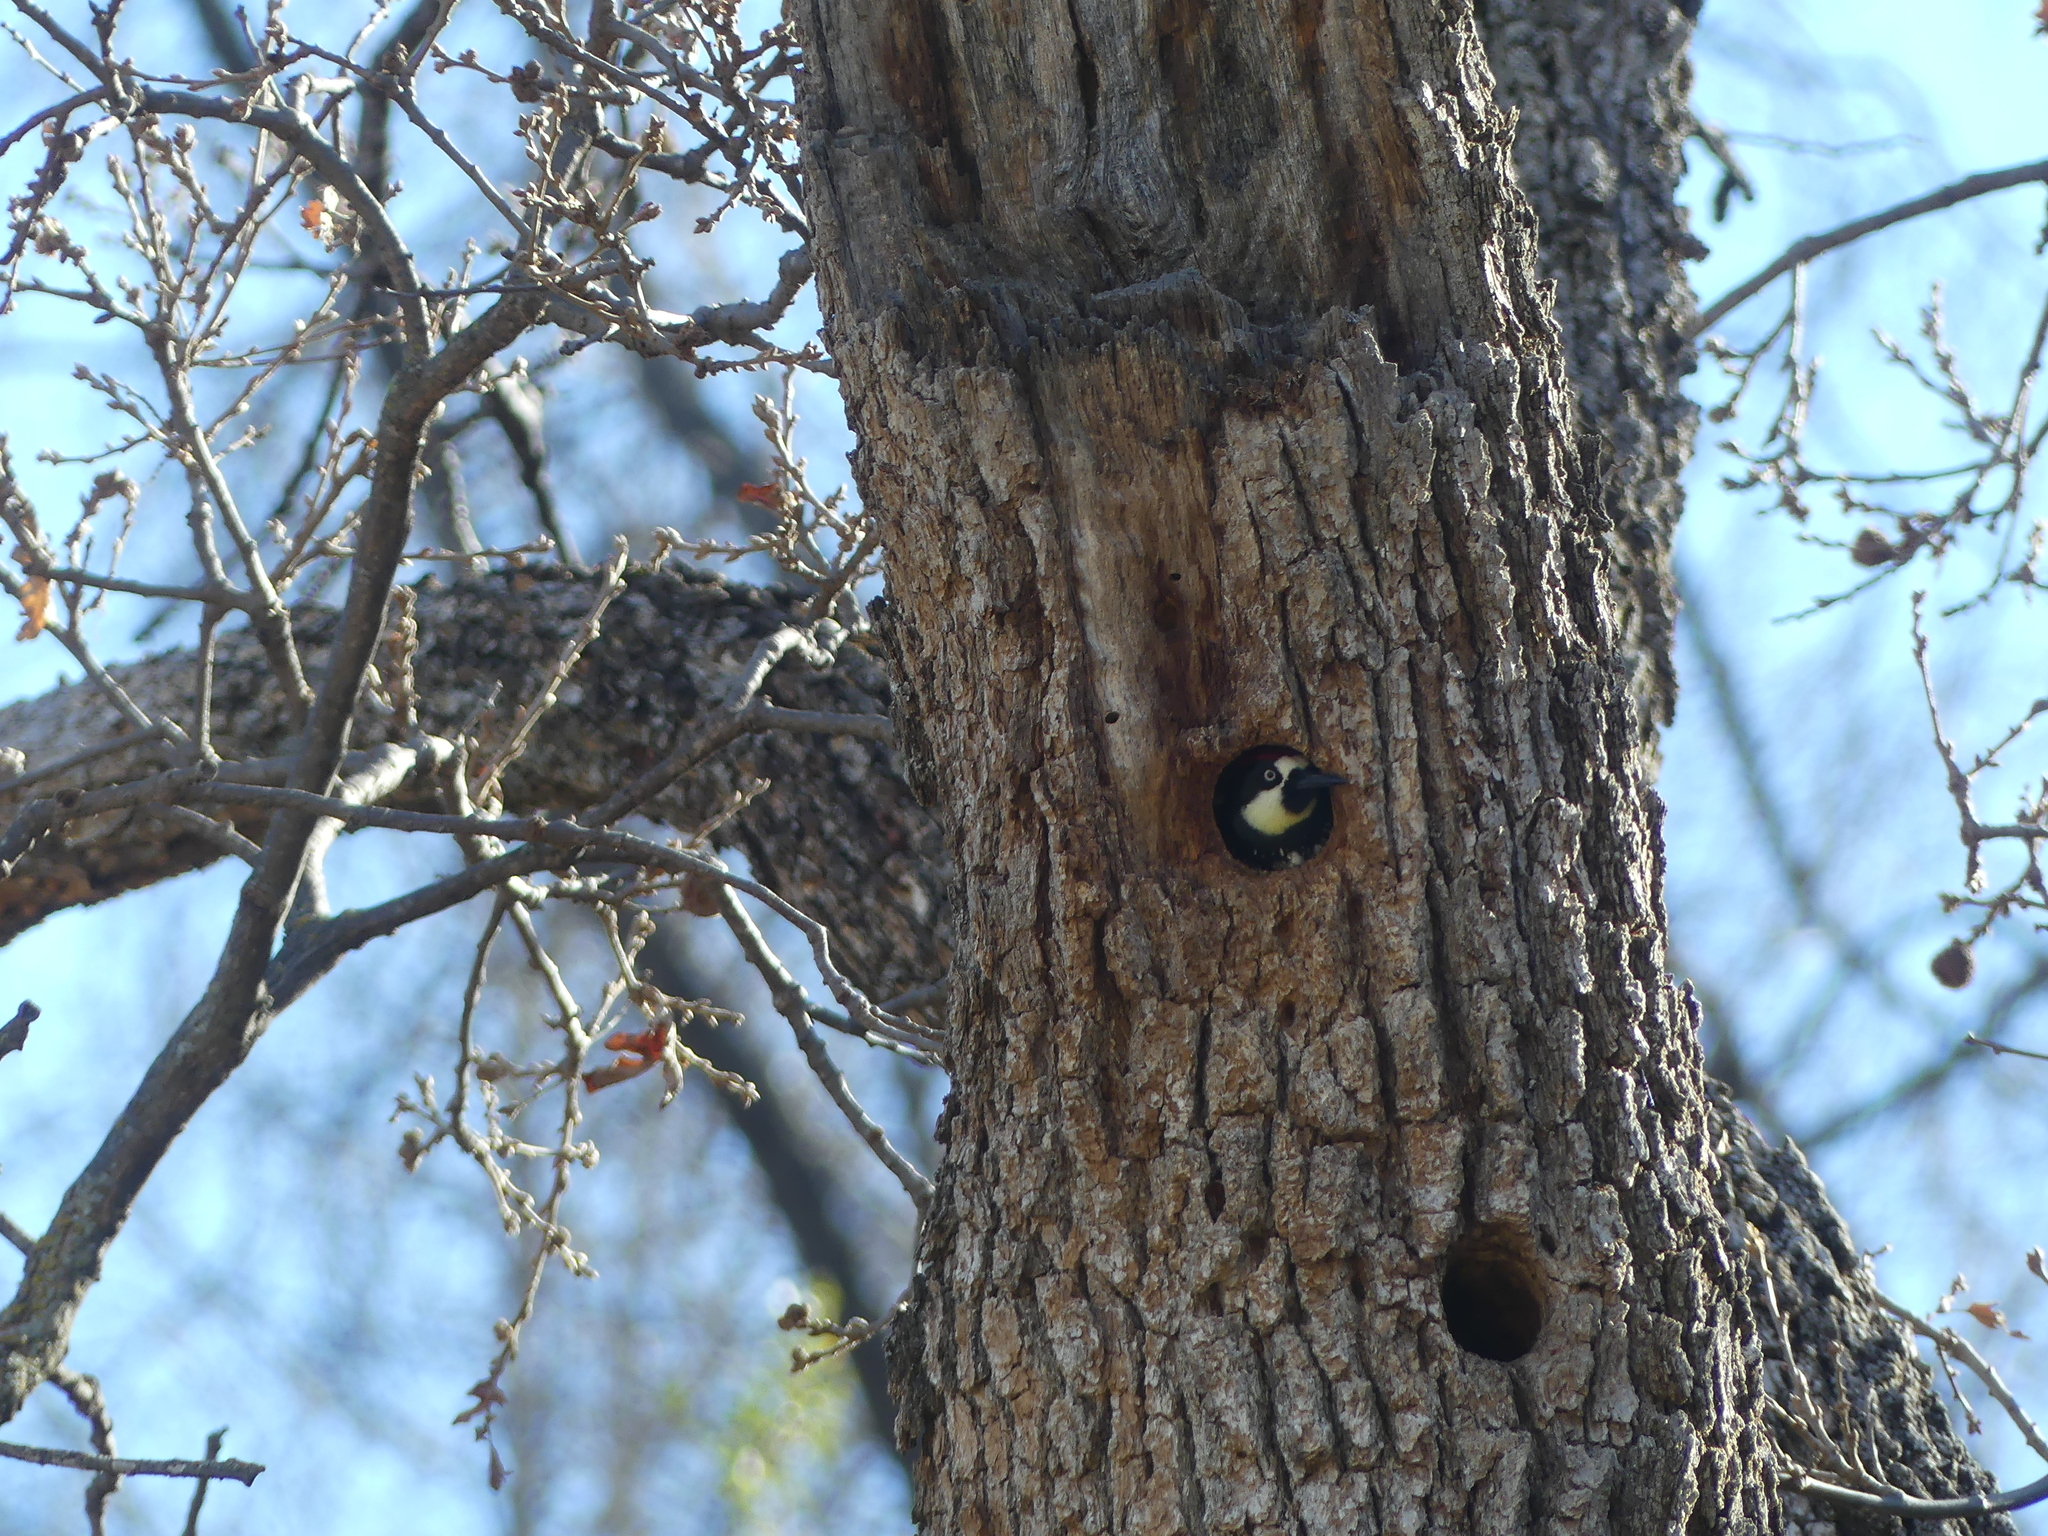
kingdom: Animalia
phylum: Chordata
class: Aves
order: Piciformes
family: Picidae
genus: Melanerpes
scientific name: Melanerpes formicivorus
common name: Acorn woodpecker
